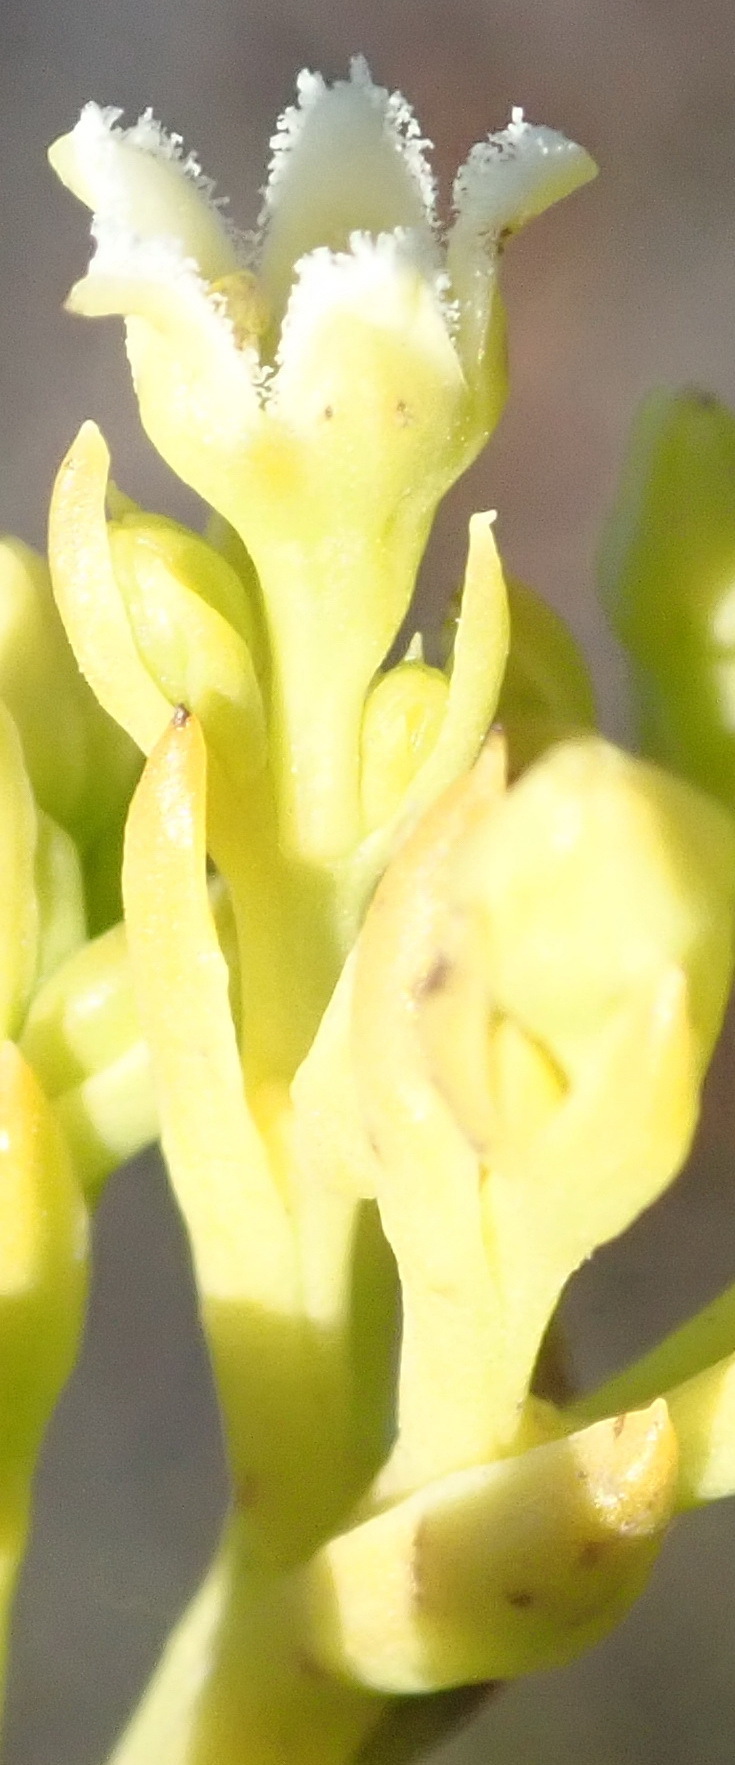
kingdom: Plantae
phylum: Tracheophyta
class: Magnoliopsida
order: Santalales
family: Thesiaceae
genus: Thesium
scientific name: Thesium strictum
